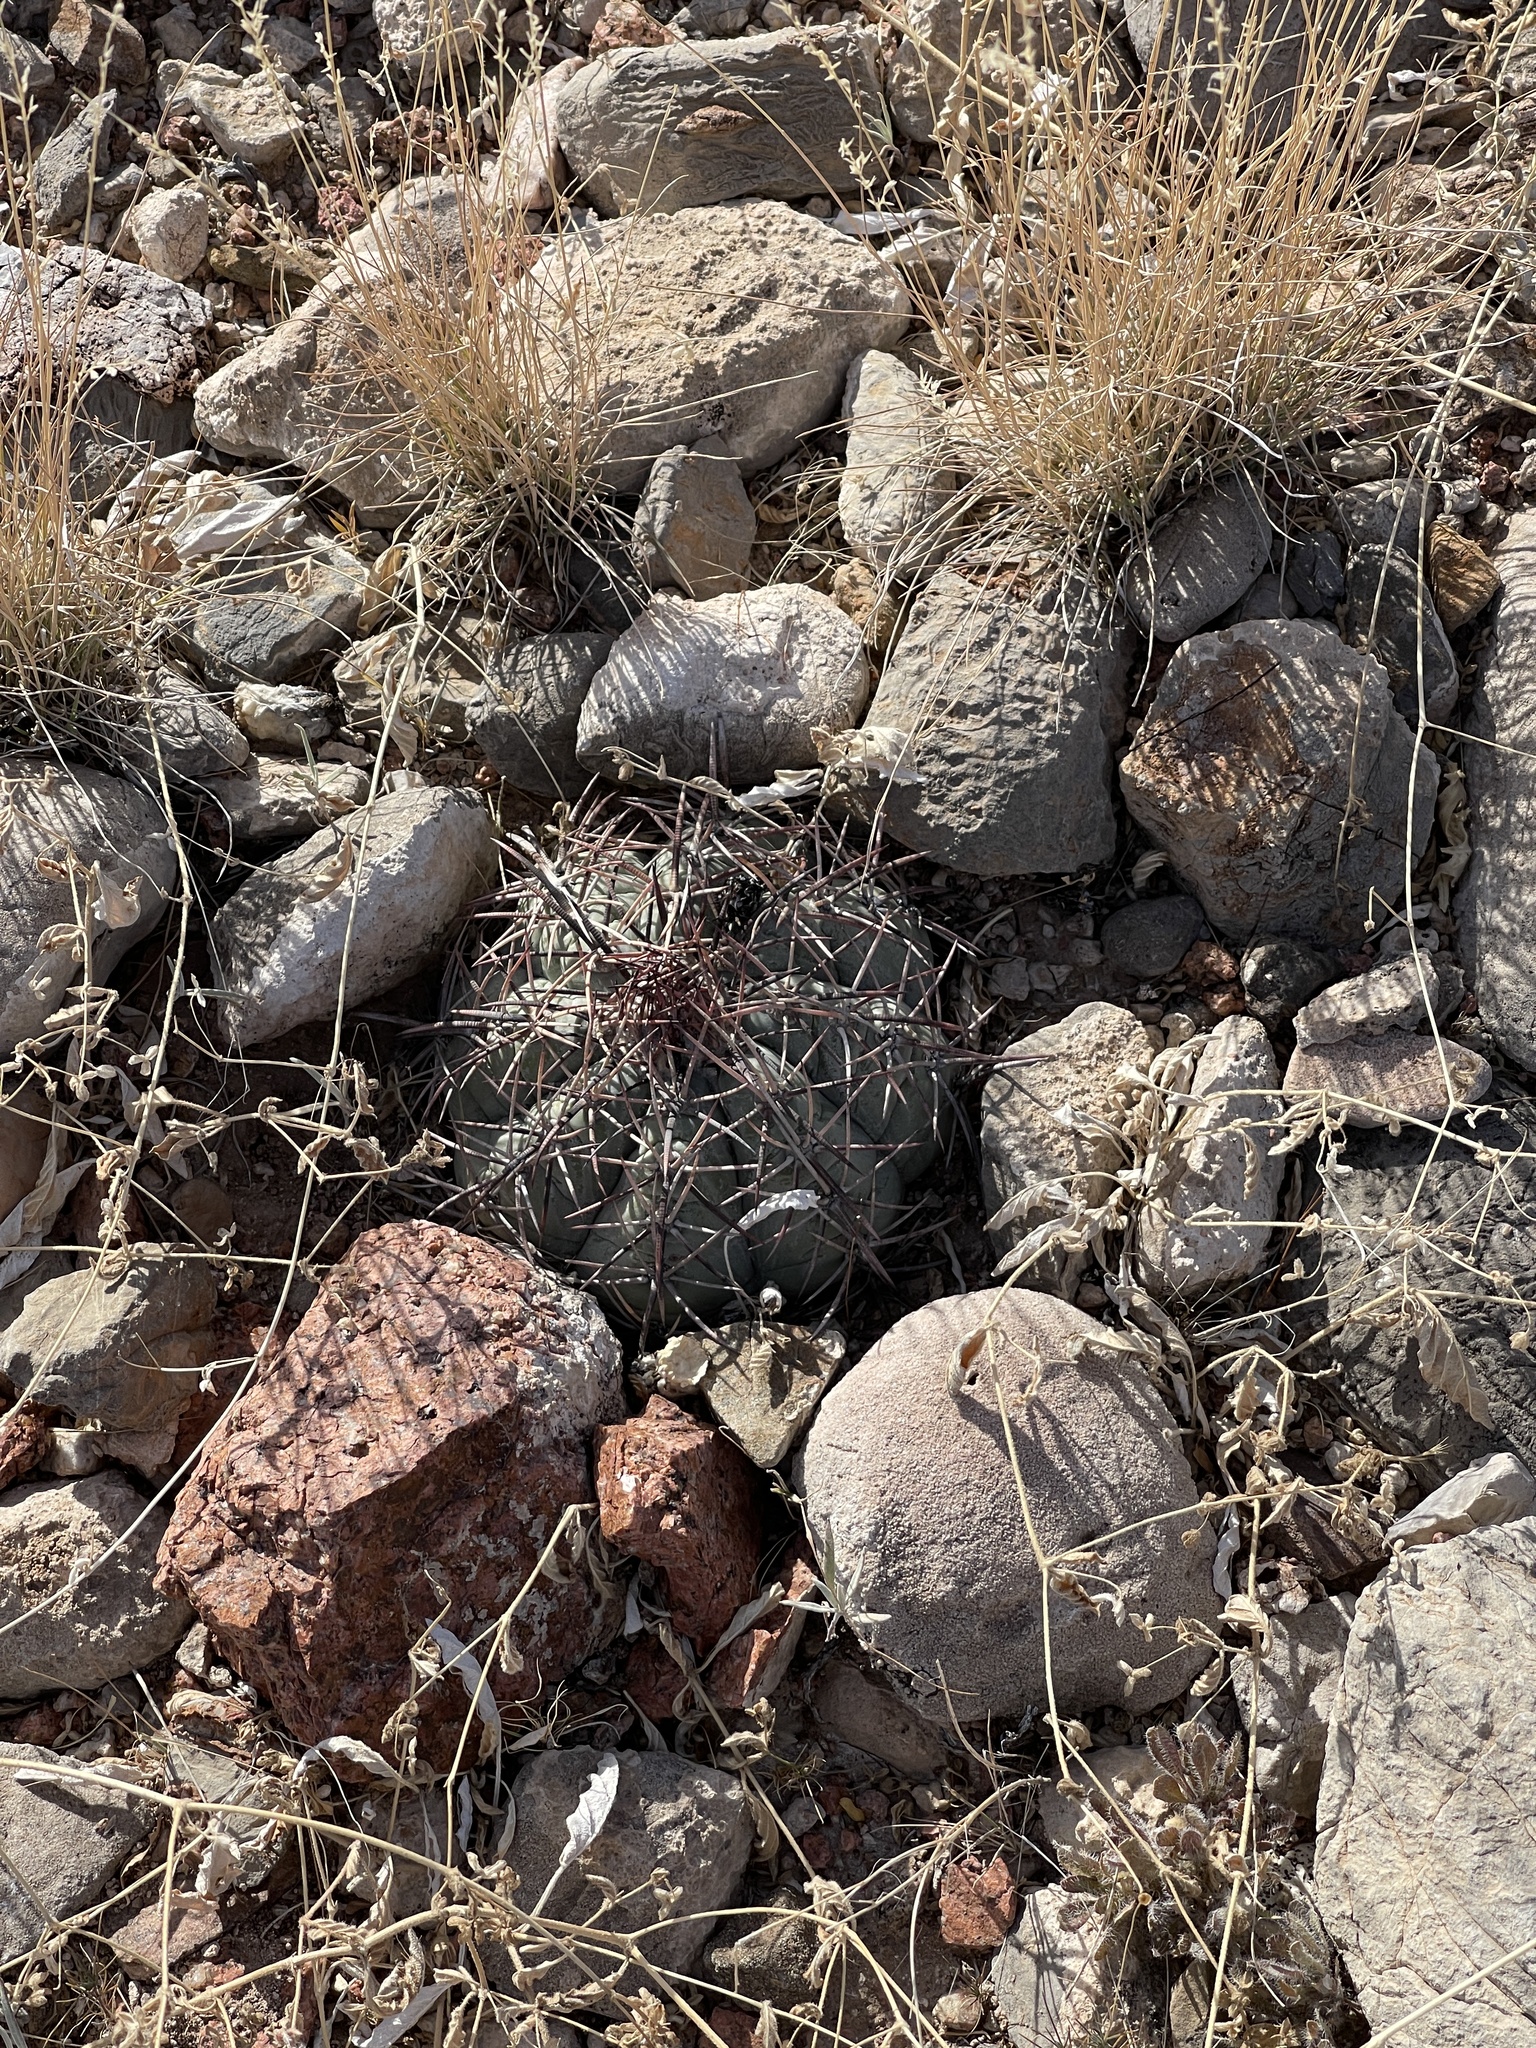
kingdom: Plantae
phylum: Tracheophyta
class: Magnoliopsida
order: Caryophyllales
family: Cactaceae
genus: Echinocactus
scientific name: Echinocactus horizonthalonius
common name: Devilshead
